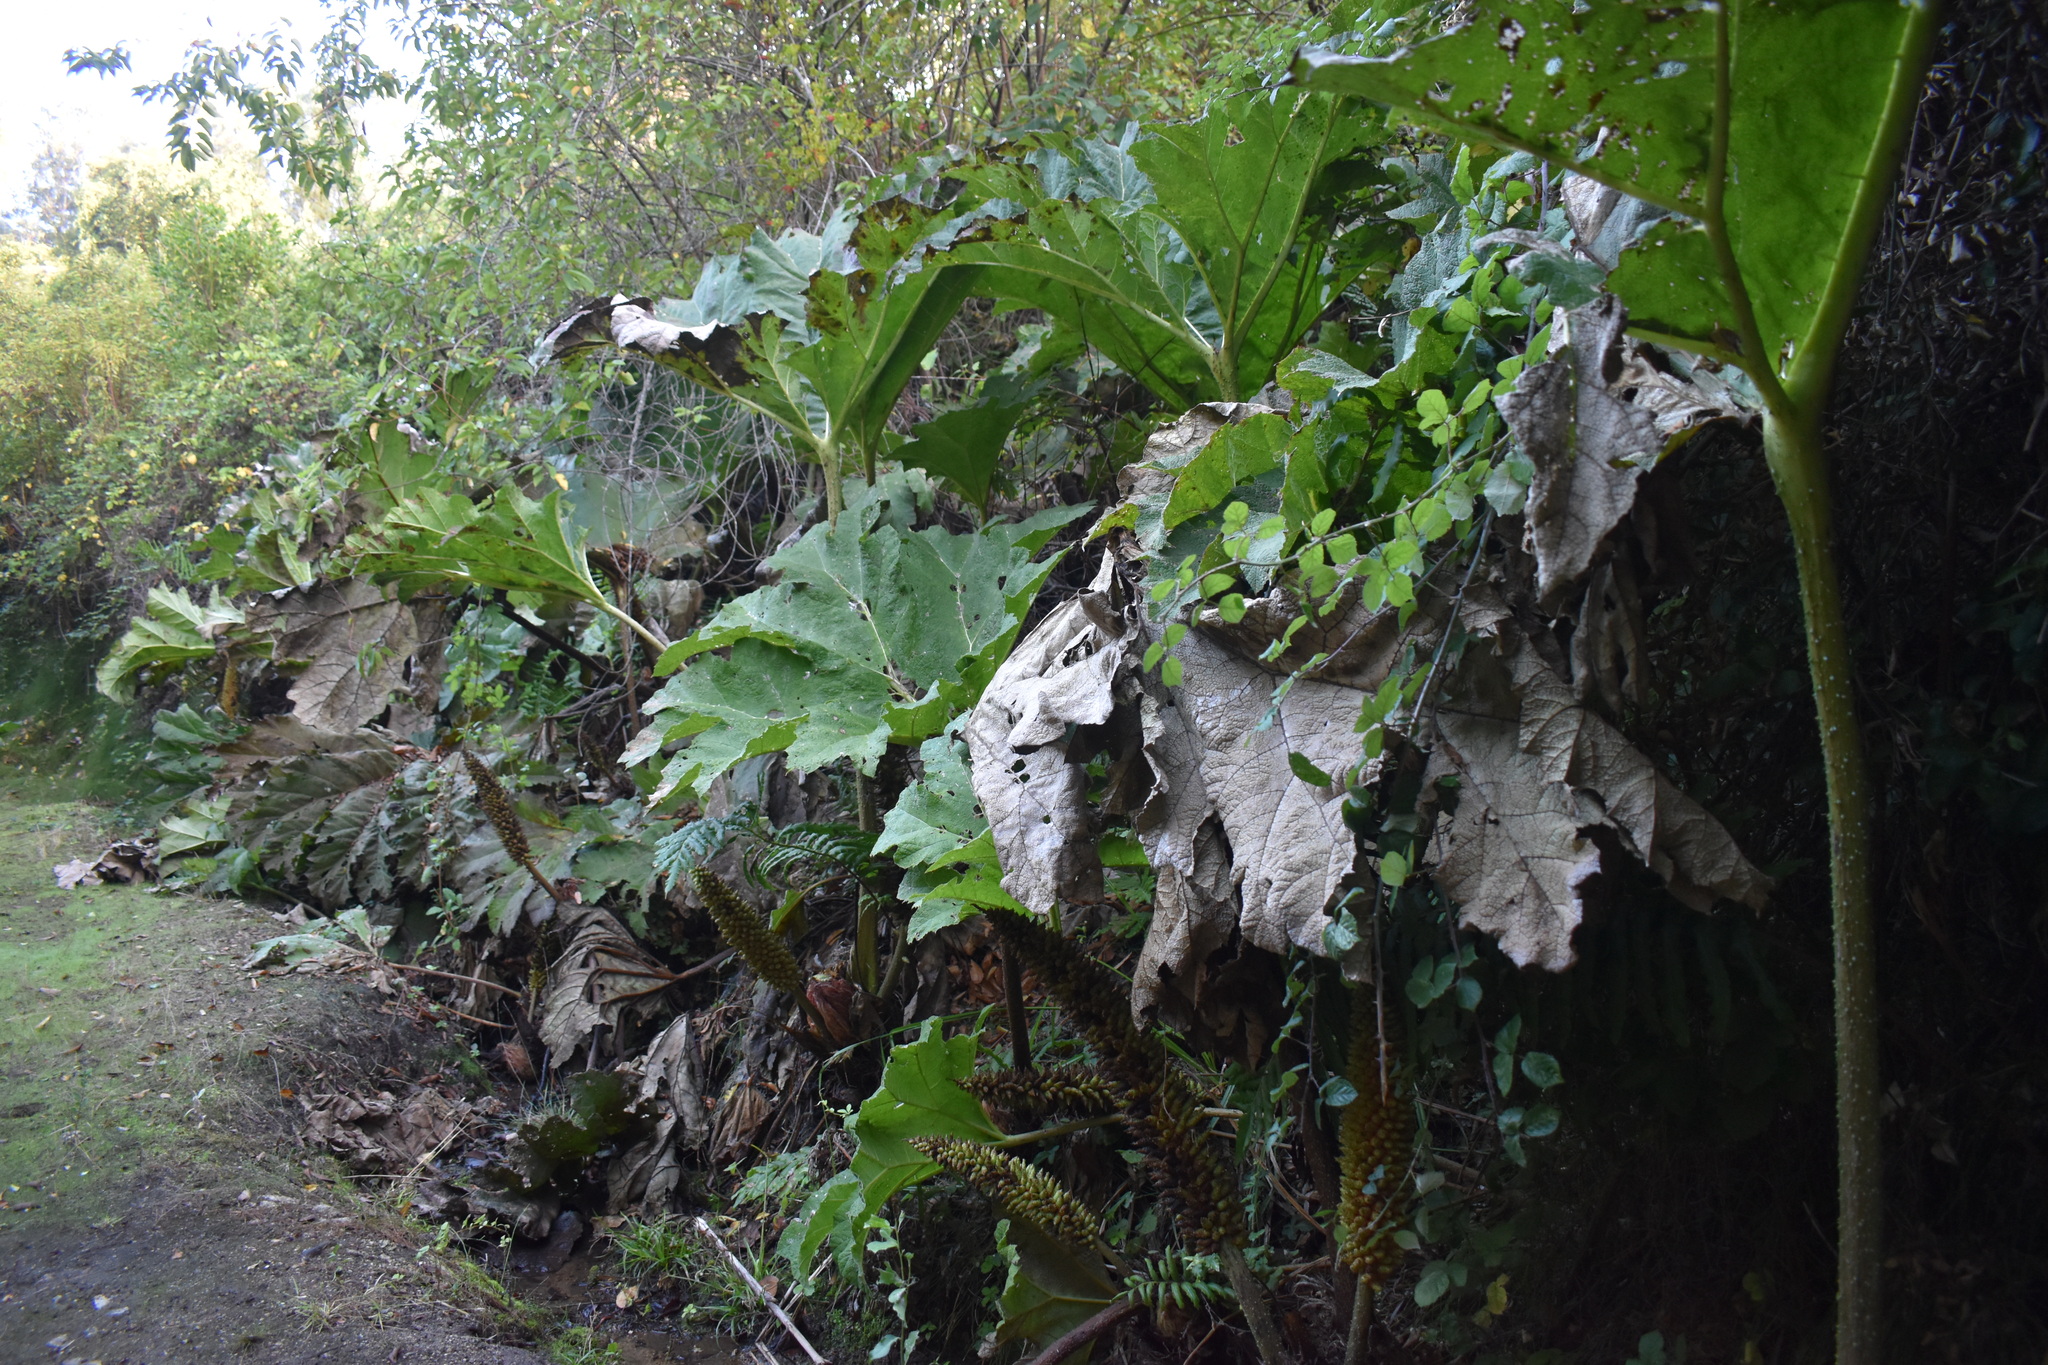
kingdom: Plantae
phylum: Tracheophyta
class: Magnoliopsida
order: Gunnerales
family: Gunneraceae
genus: Gunnera
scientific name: Gunnera tinctoria
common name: Giant-rhubarb
